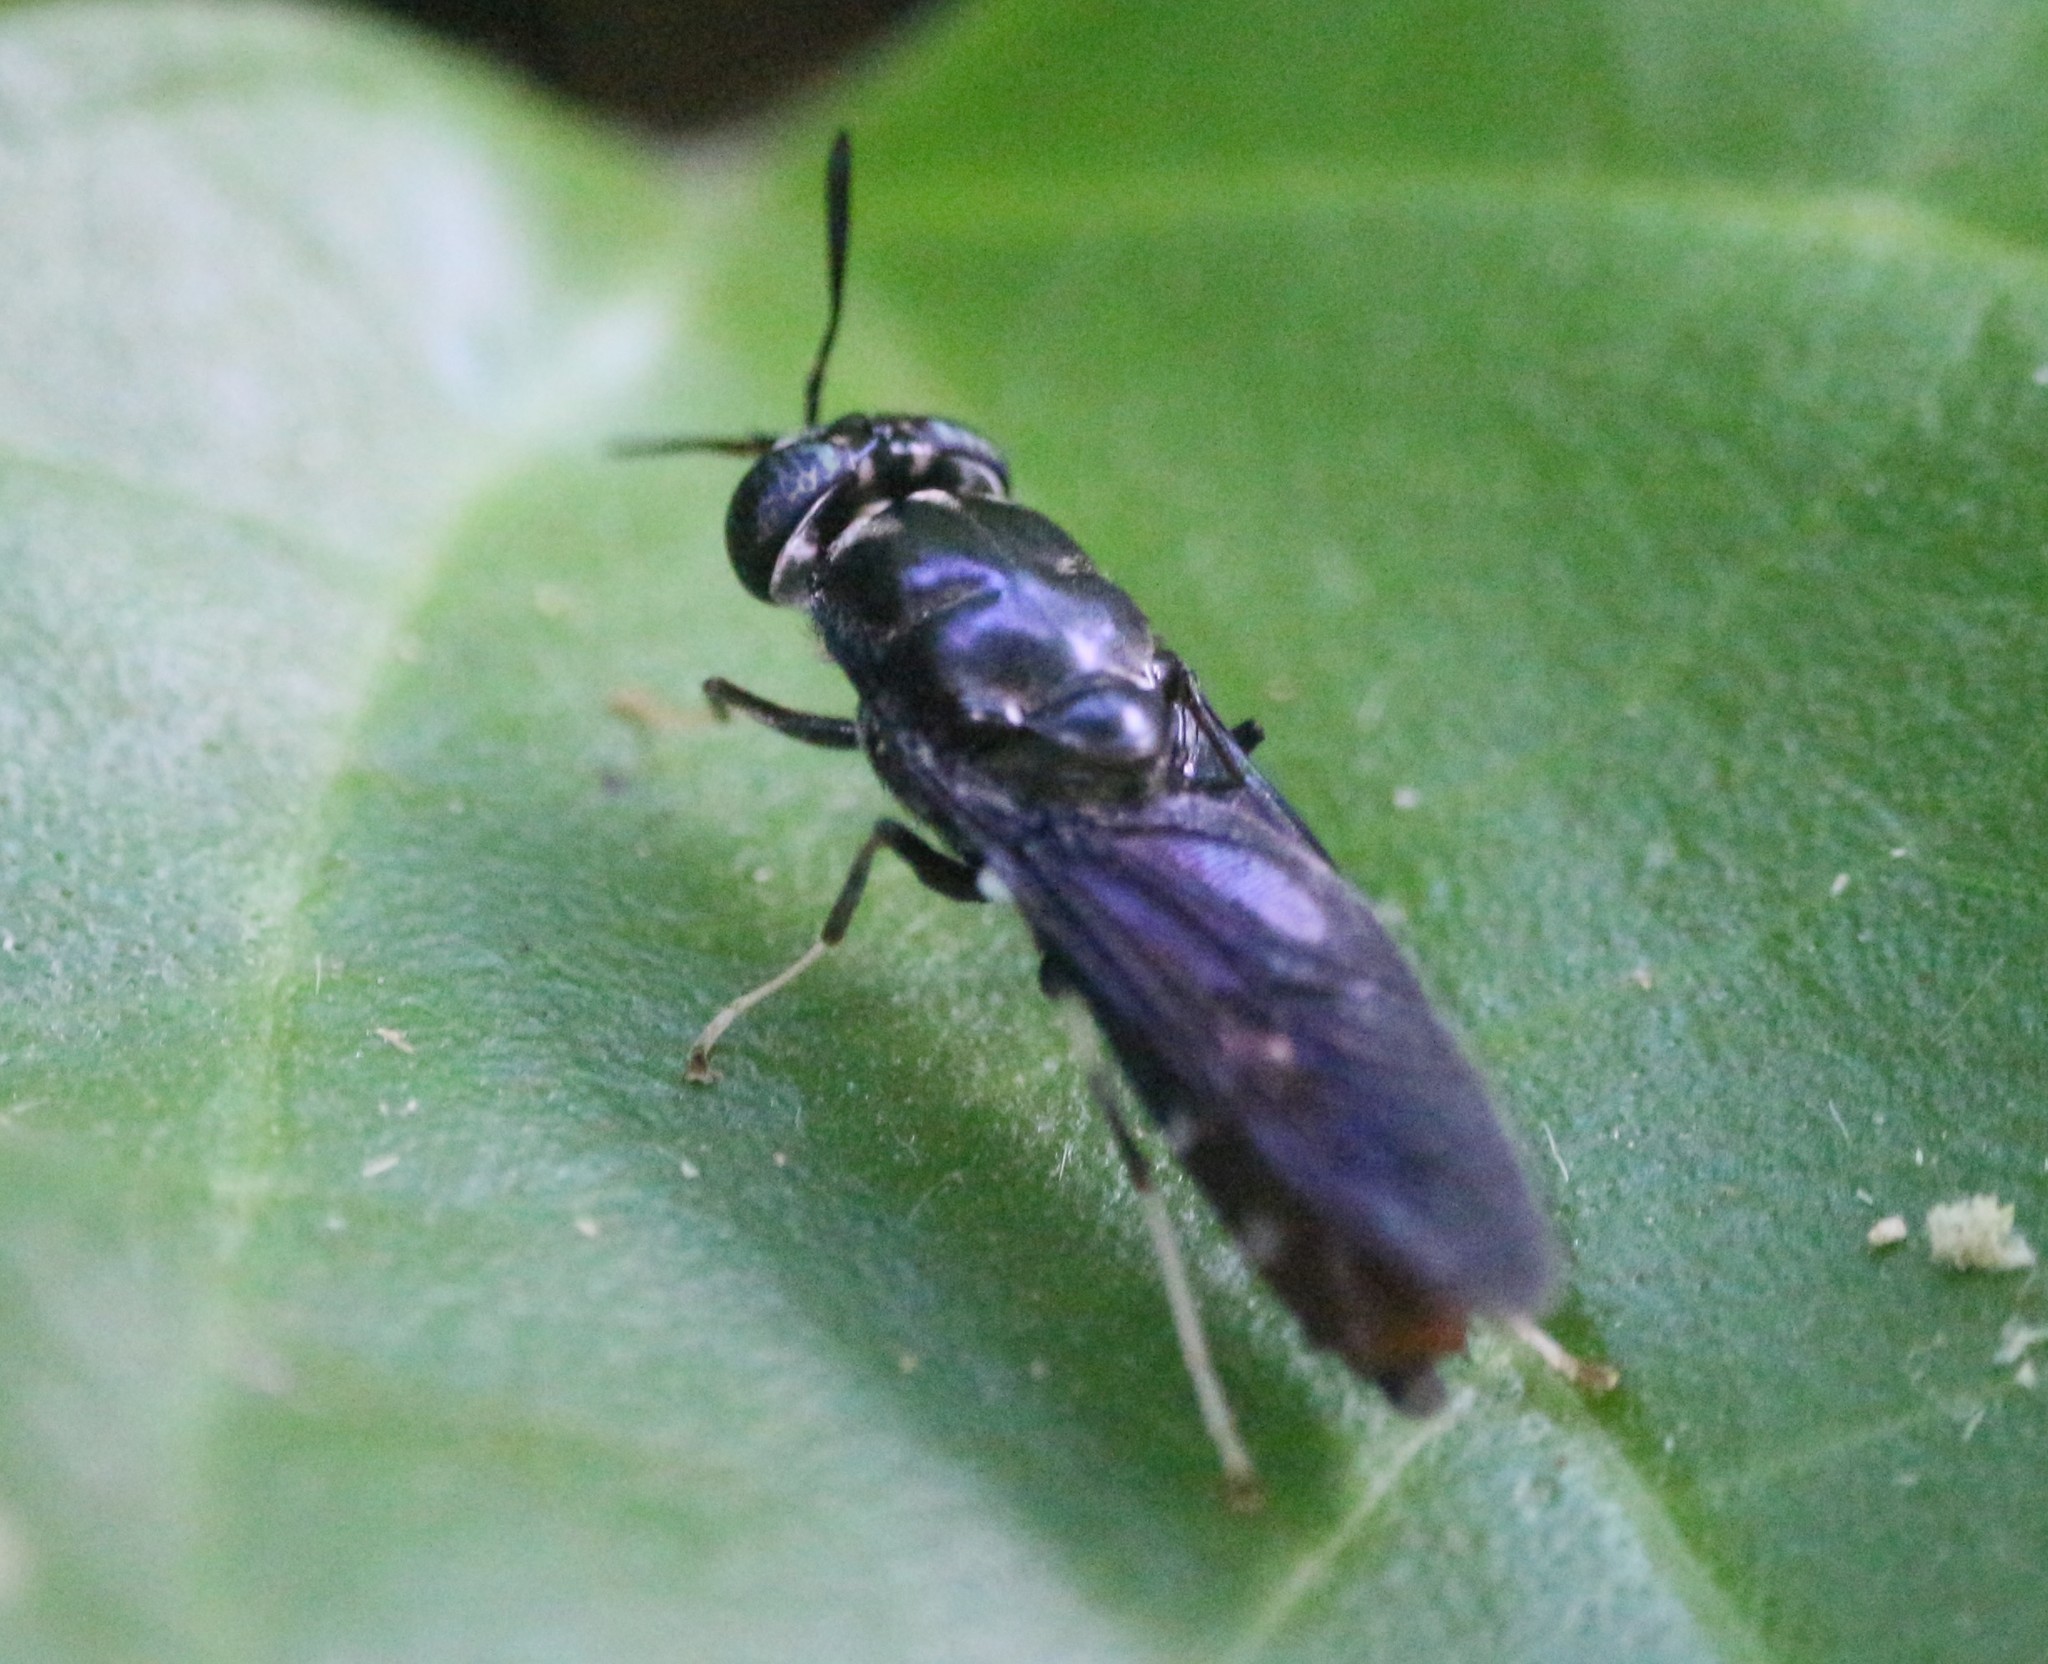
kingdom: Animalia
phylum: Arthropoda
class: Insecta
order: Diptera
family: Stratiomyidae
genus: Hermetia
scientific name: Hermetia illucens
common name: Black soldier fly
